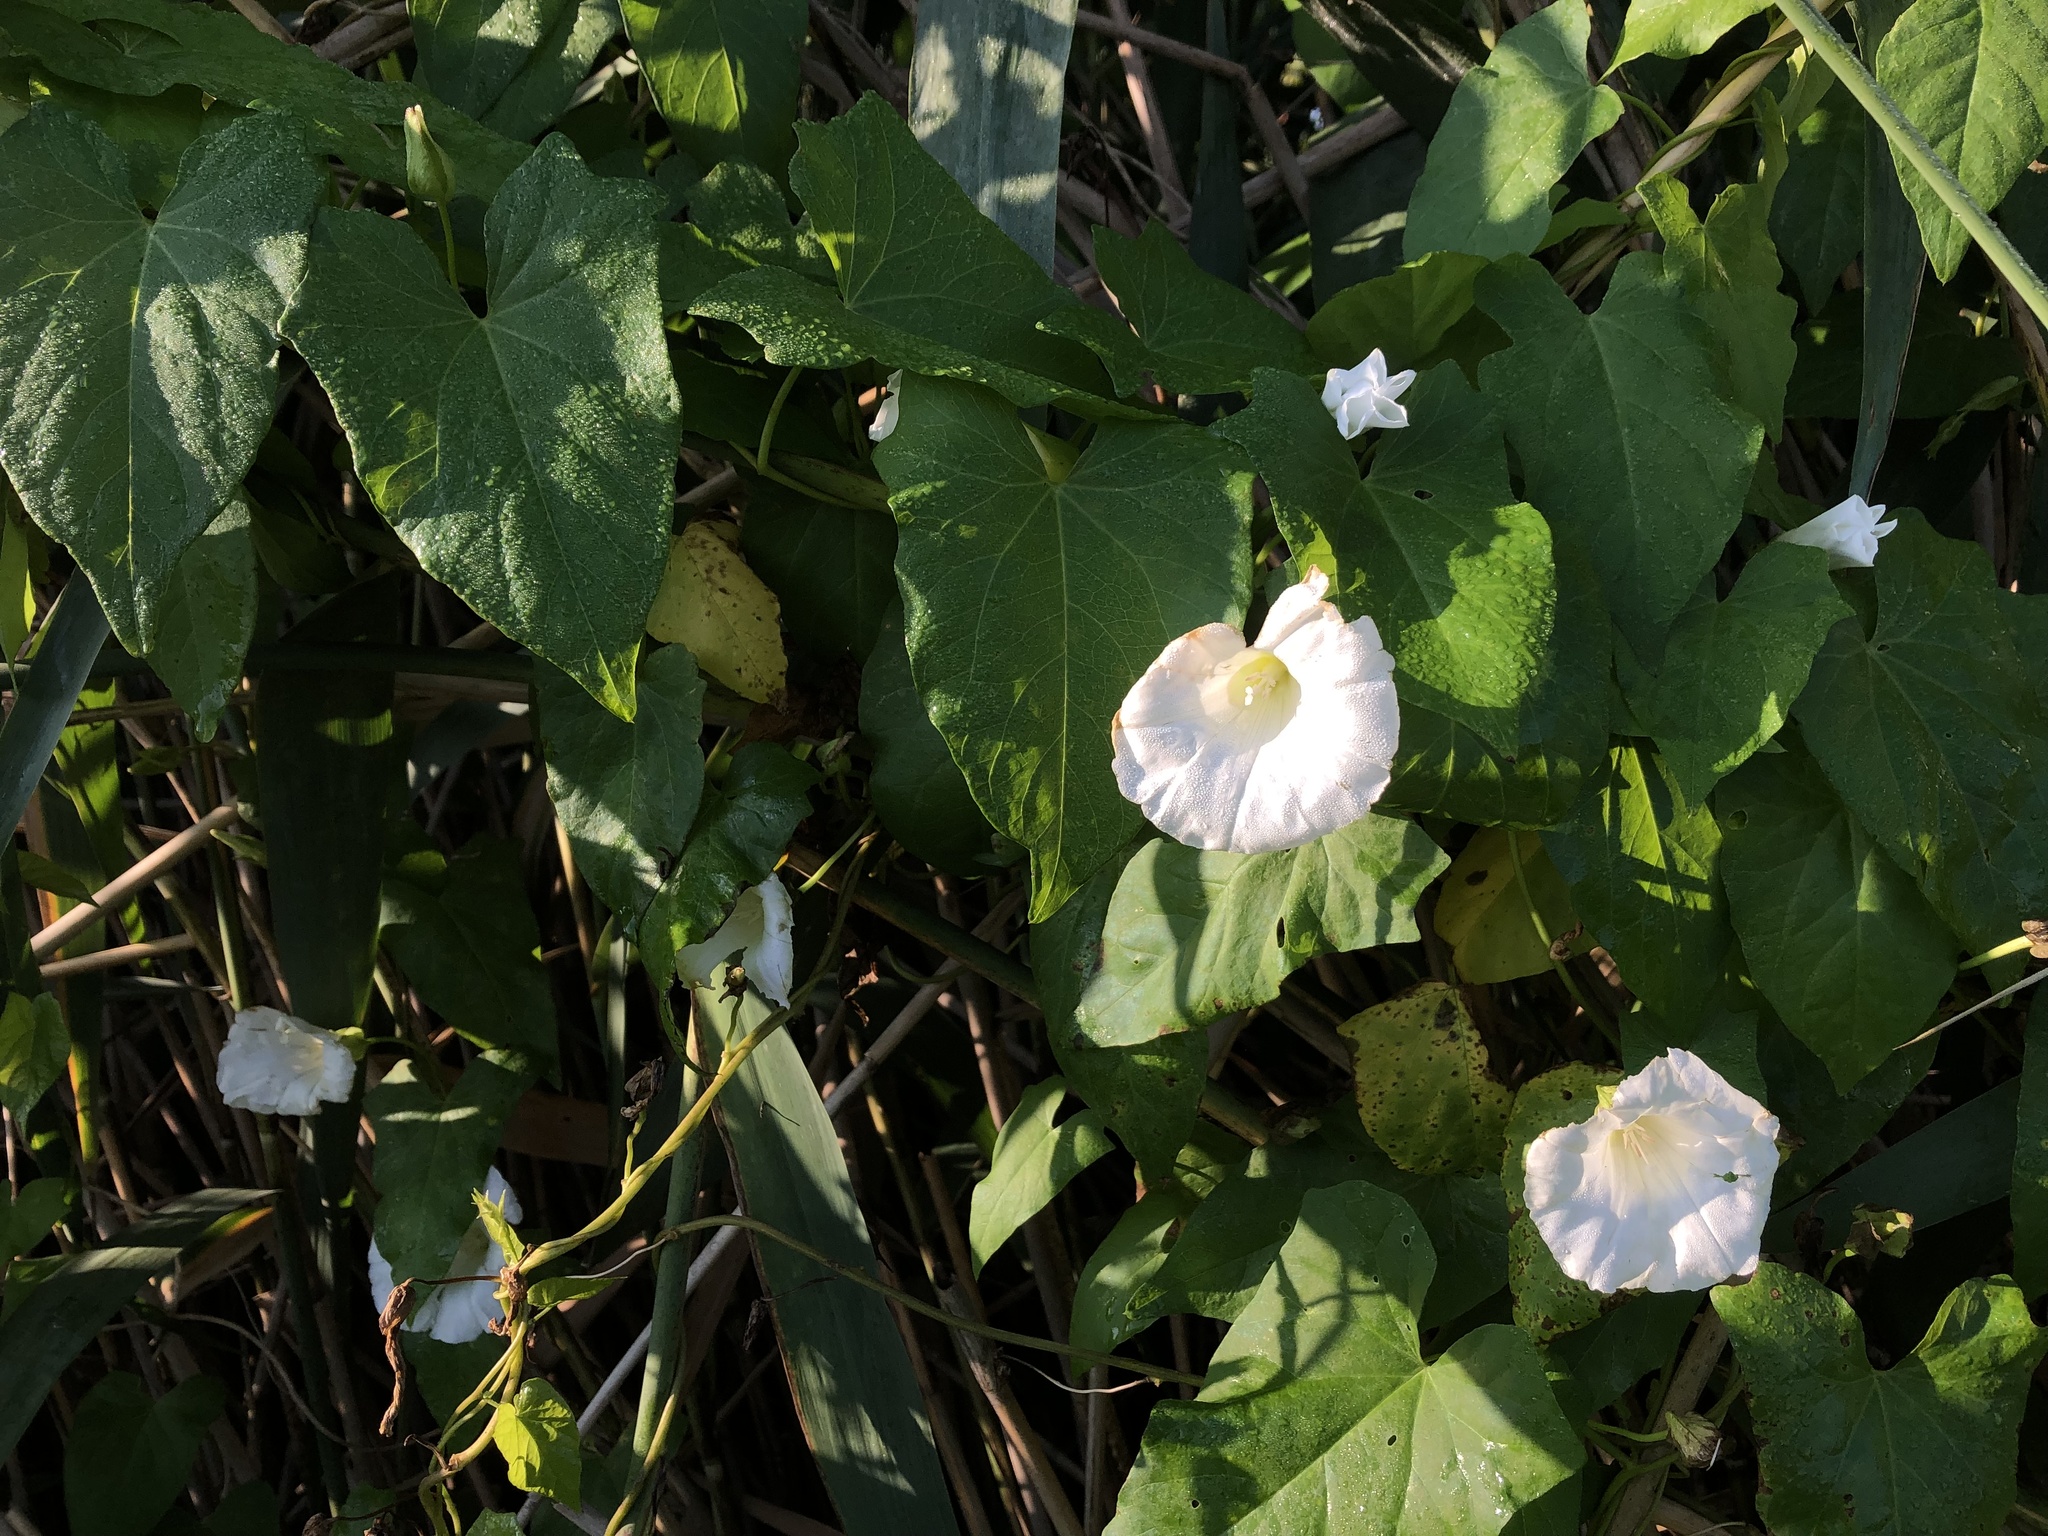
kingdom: Plantae
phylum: Tracheophyta
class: Magnoliopsida
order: Solanales
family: Convolvulaceae
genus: Calystegia
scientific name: Calystegia sepium
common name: Hedge bindweed
